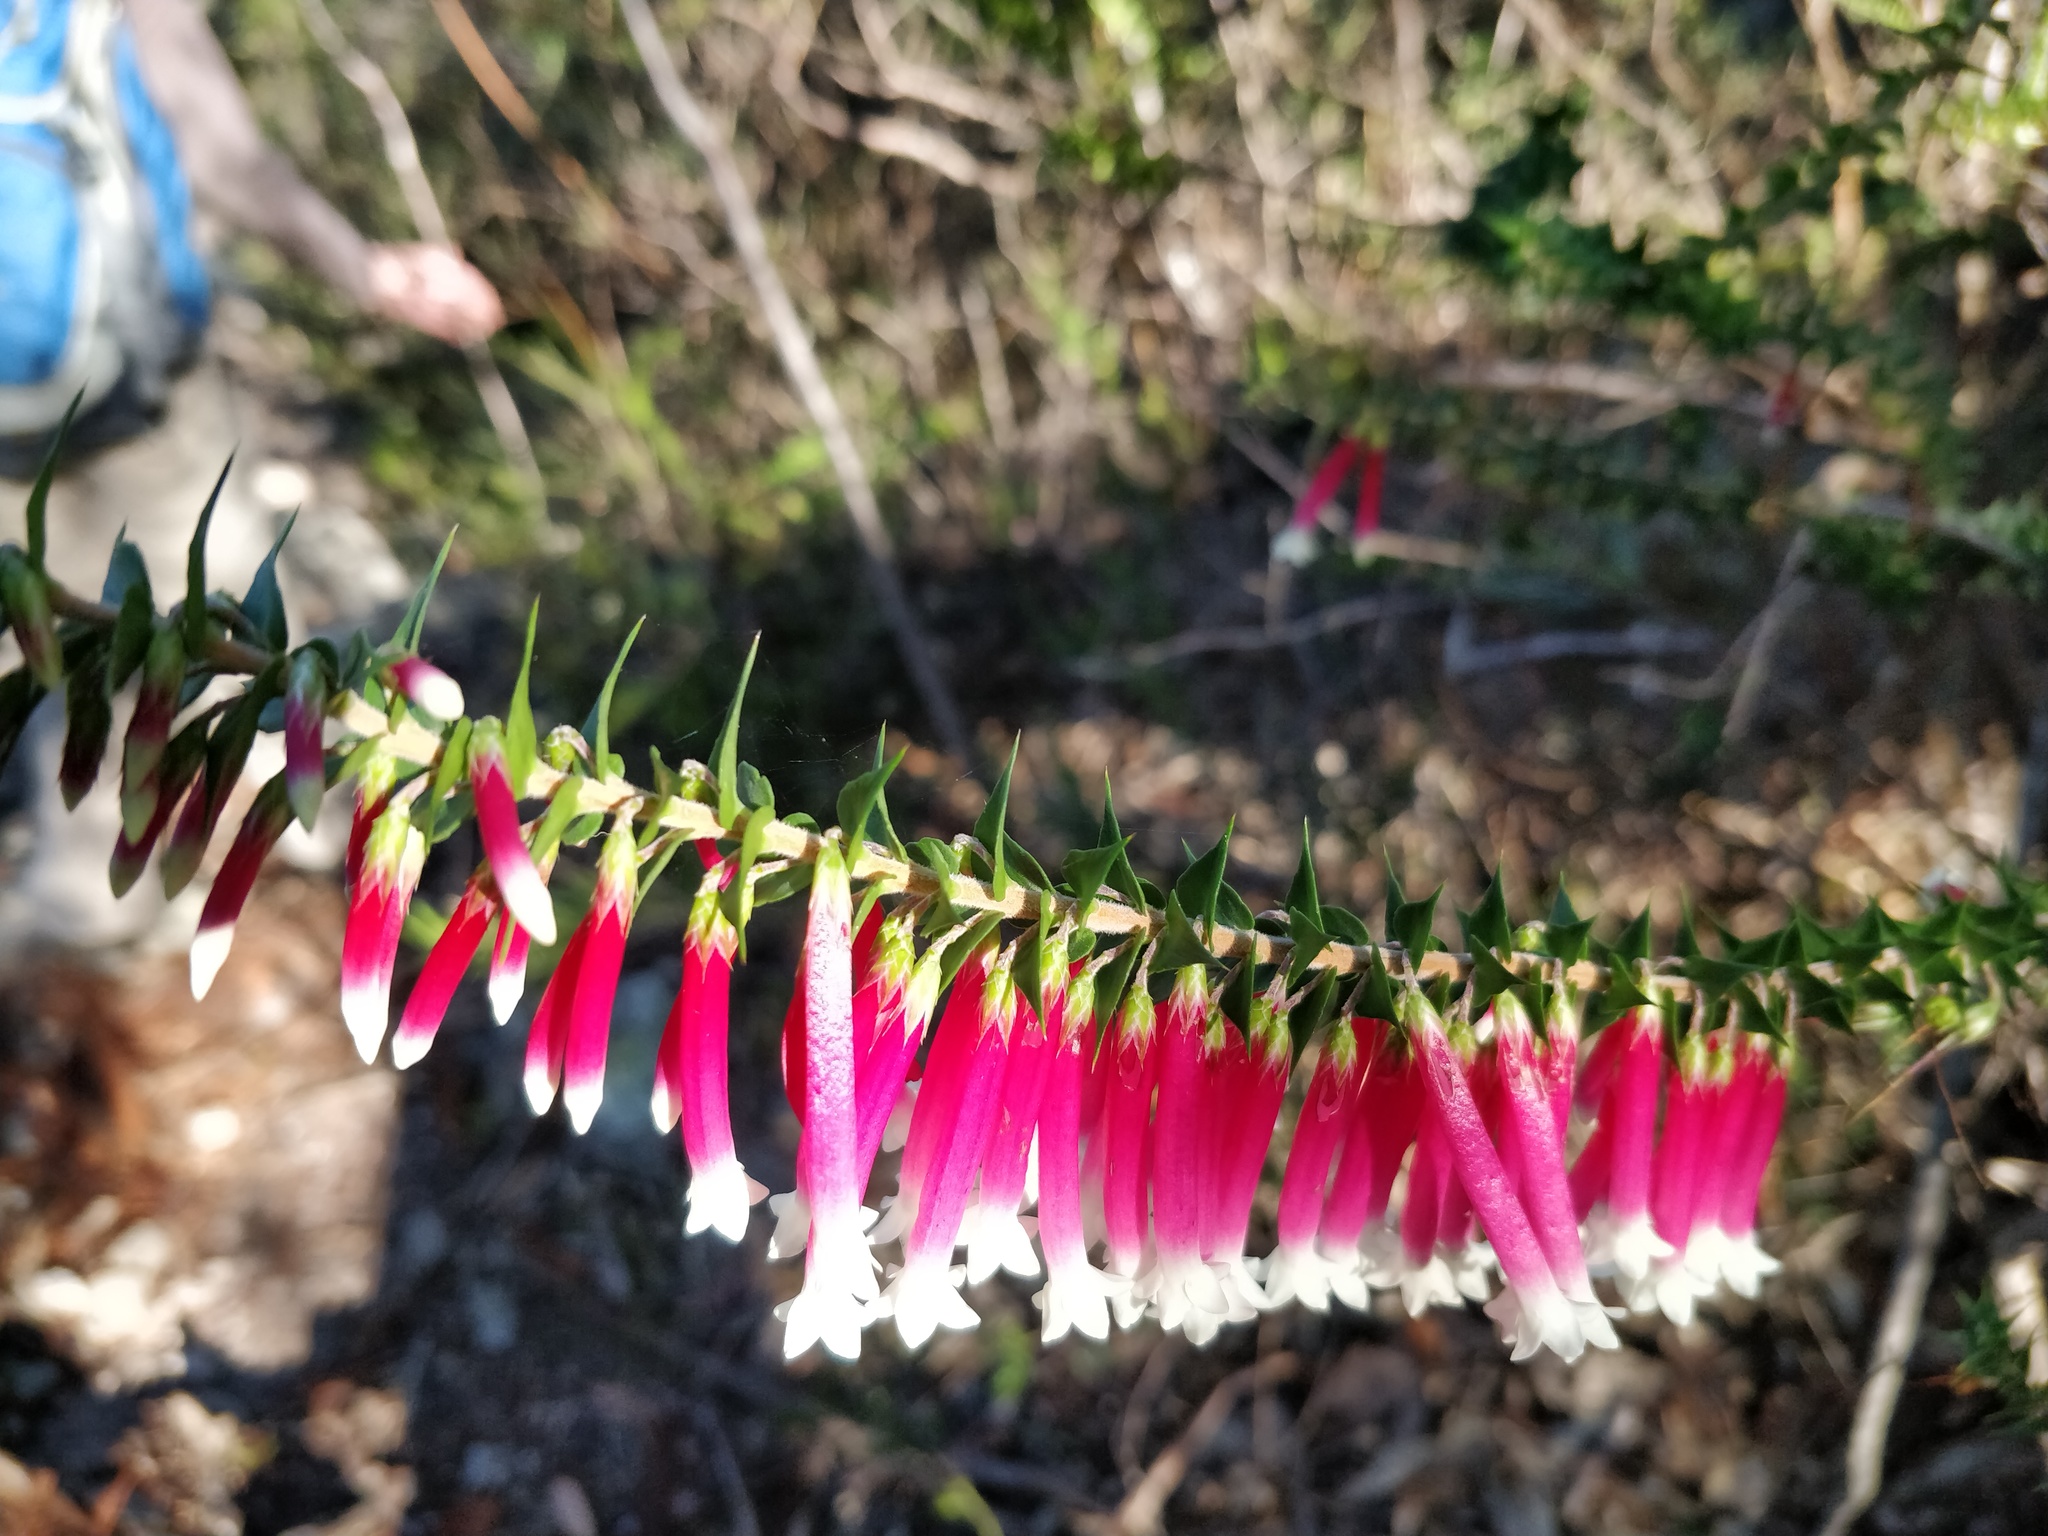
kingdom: Plantae
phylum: Tracheophyta
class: Magnoliopsida
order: Ericales
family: Ericaceae
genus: Epacris
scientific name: Epacris longiflora
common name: Fuchsia-heath
